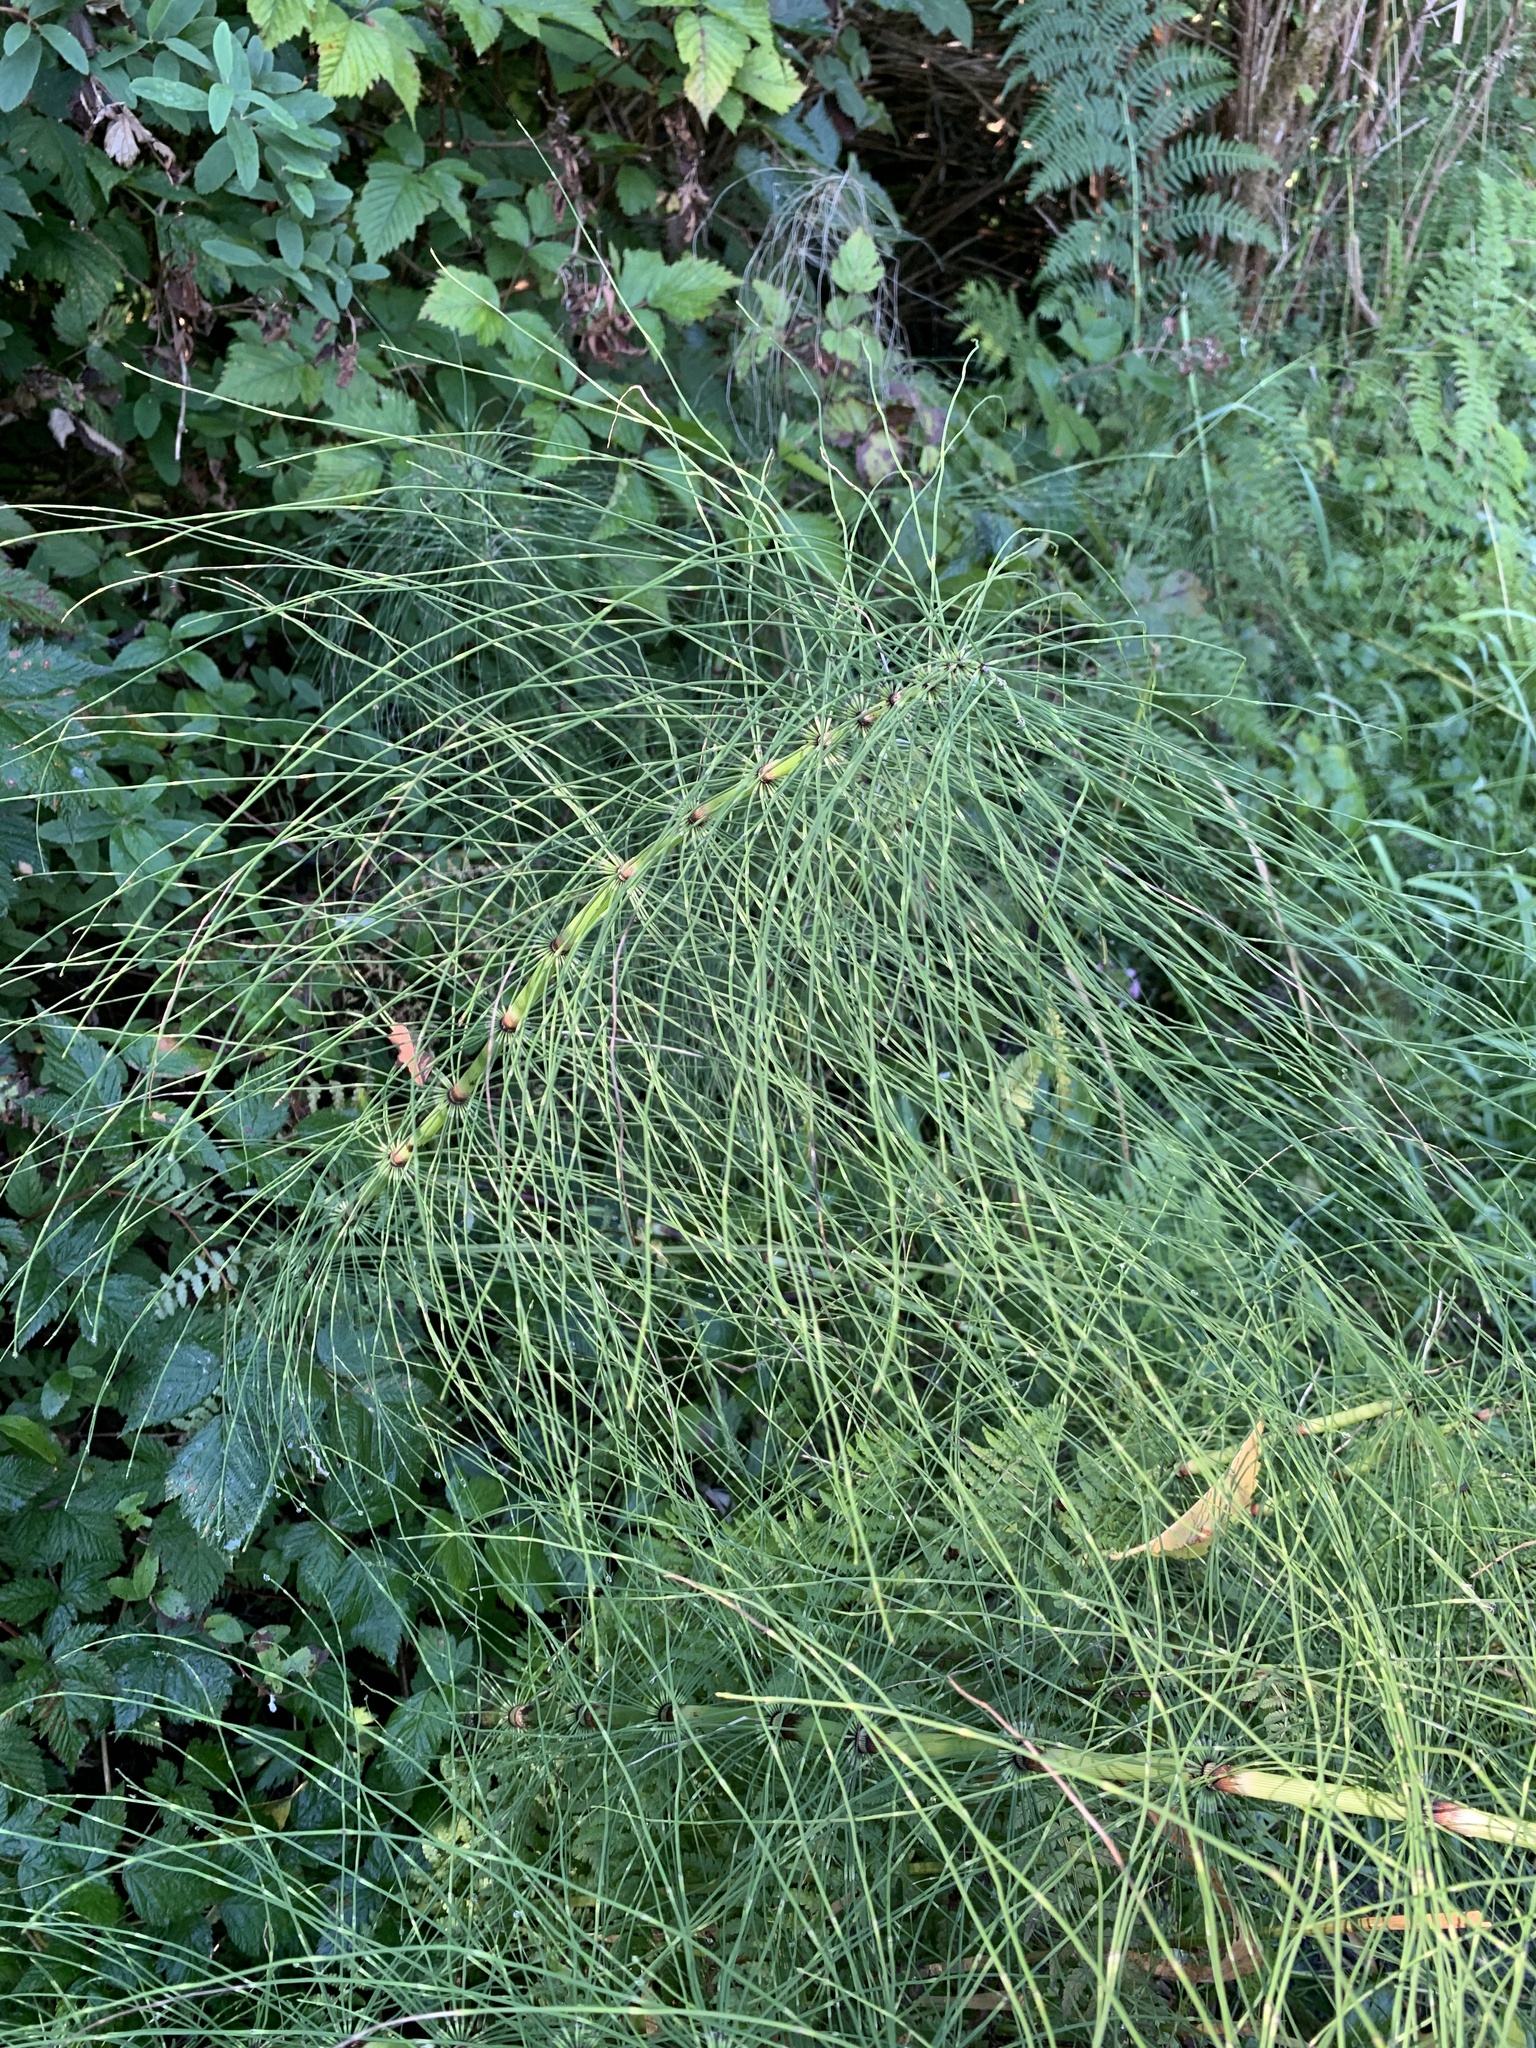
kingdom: Plantae
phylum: Tracheophyta
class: Polypodiopsida
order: Equisetales
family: Equisetaceae
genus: Equisetum
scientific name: Equisetum braunii
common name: Braun's horsetail
